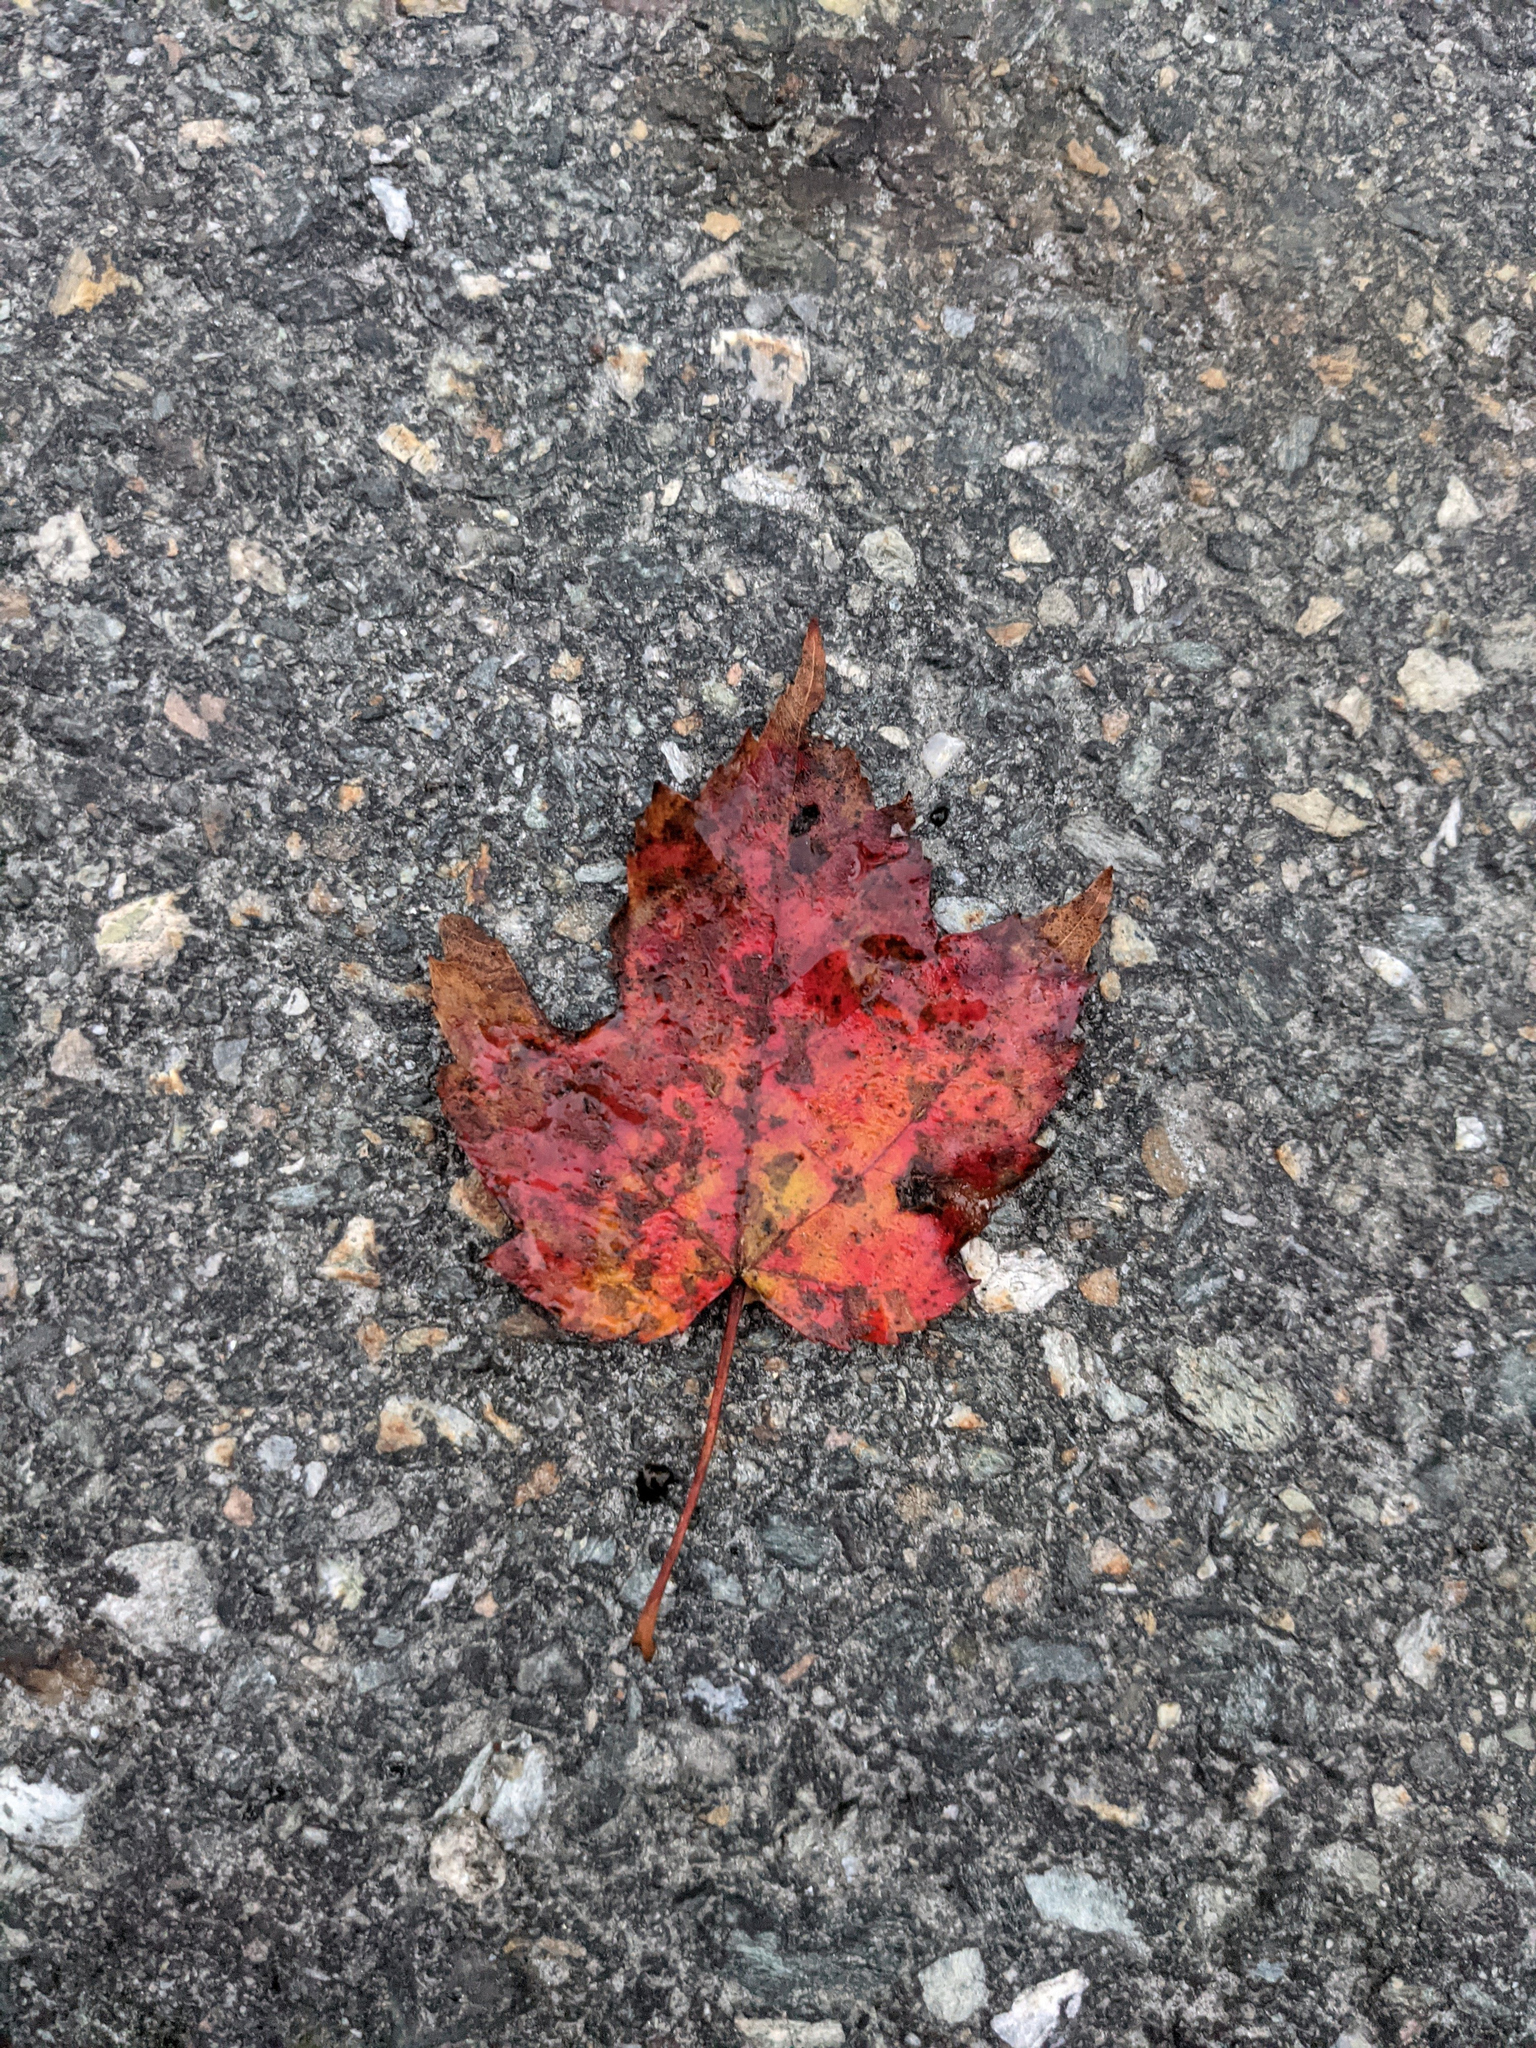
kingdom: Plantae
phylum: Tracheophyta
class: Magnoliopsida
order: Sapindales
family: Sapindaceae
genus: Acer
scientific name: Acer rubrum
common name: Red maple
